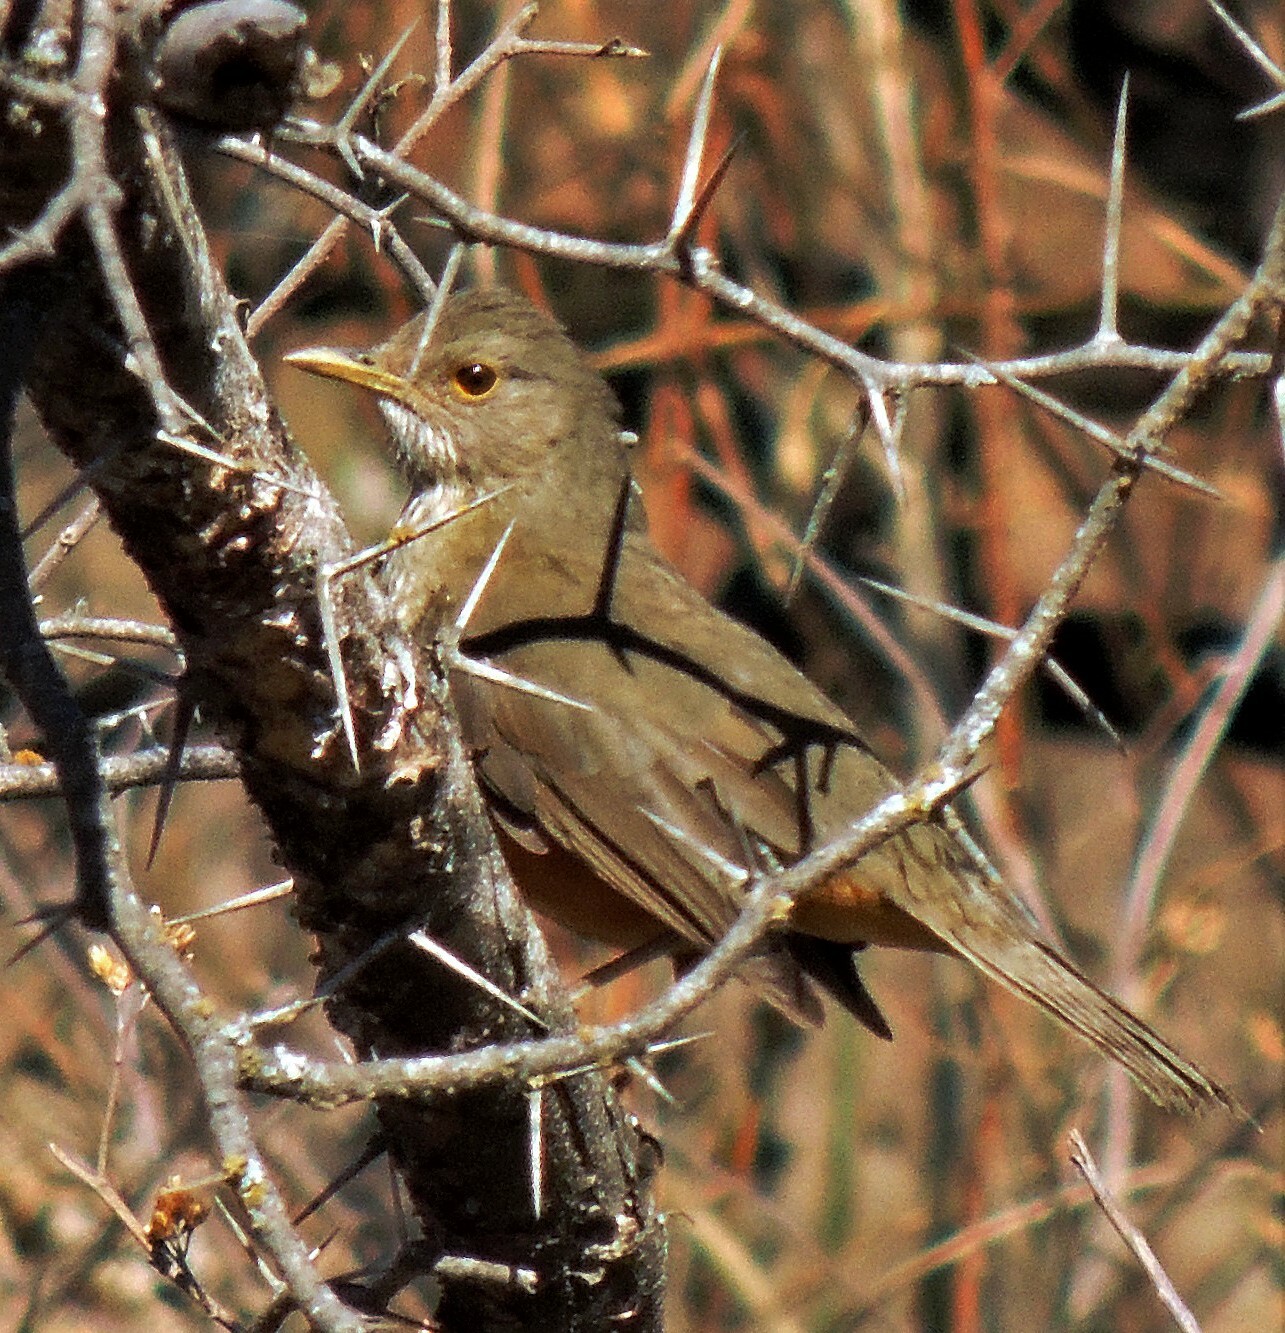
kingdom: Animalia
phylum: Chordata
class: Aves
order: Passeriformes
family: Turdidae
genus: Turdus
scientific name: Turdus rufiventris
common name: Rufous-bellied thrush
